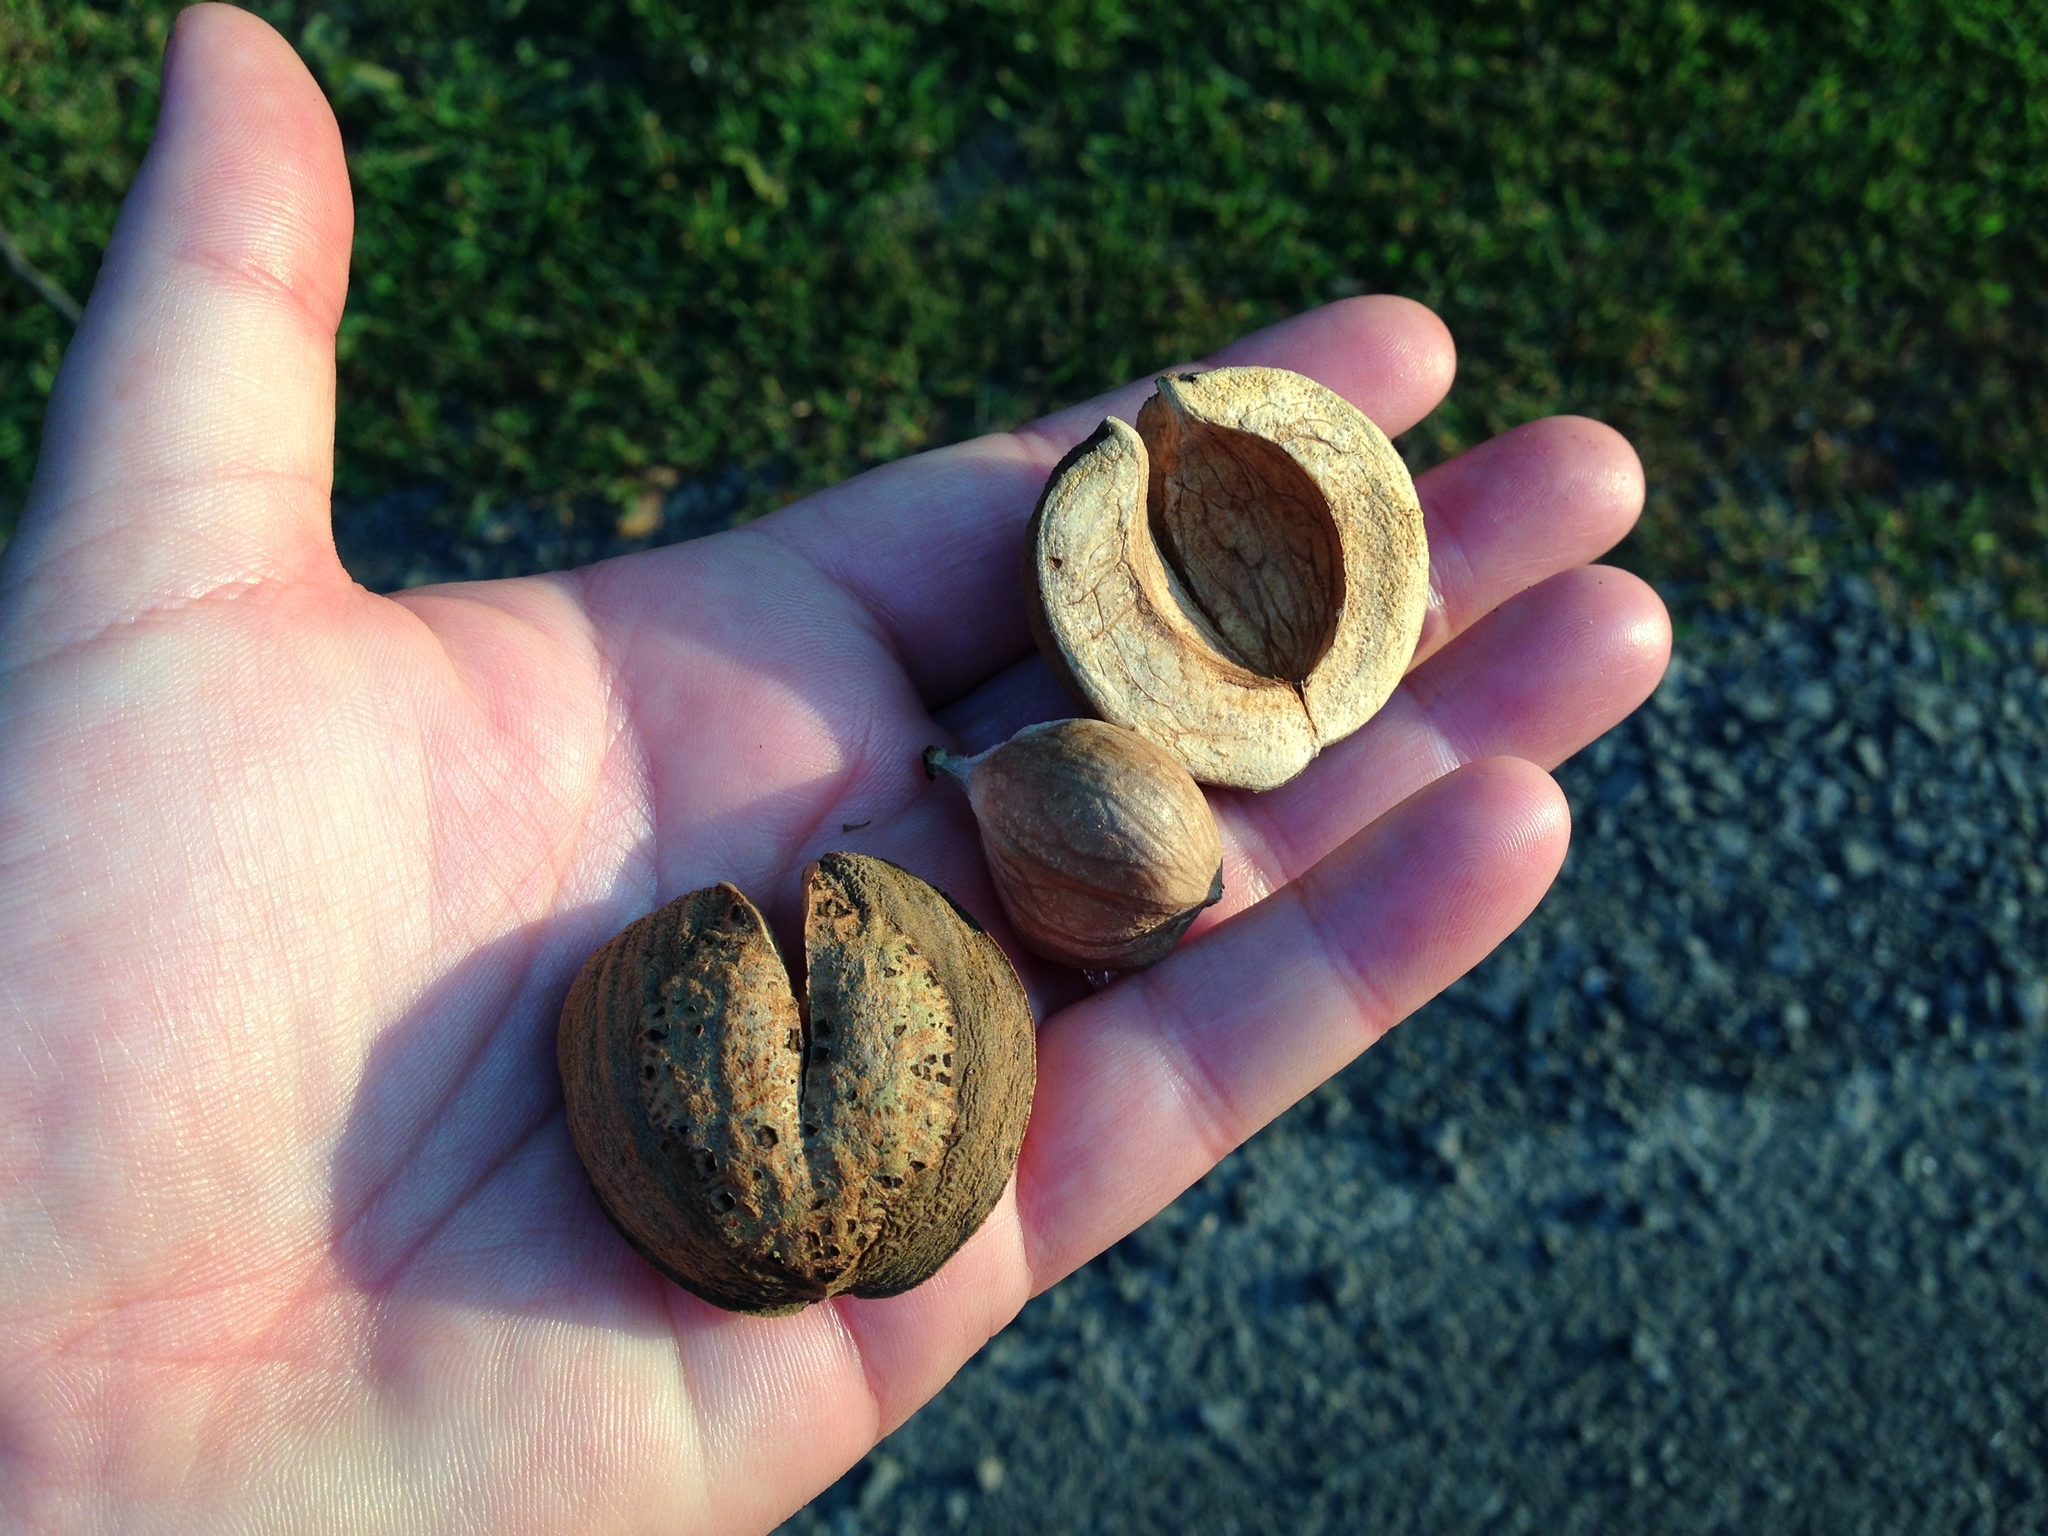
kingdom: Plantae
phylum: Tracheophyta
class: Magnoliopsida
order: Fagales
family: Juglandaceae
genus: Carya
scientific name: Carya ovata
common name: Shagbark hickory
